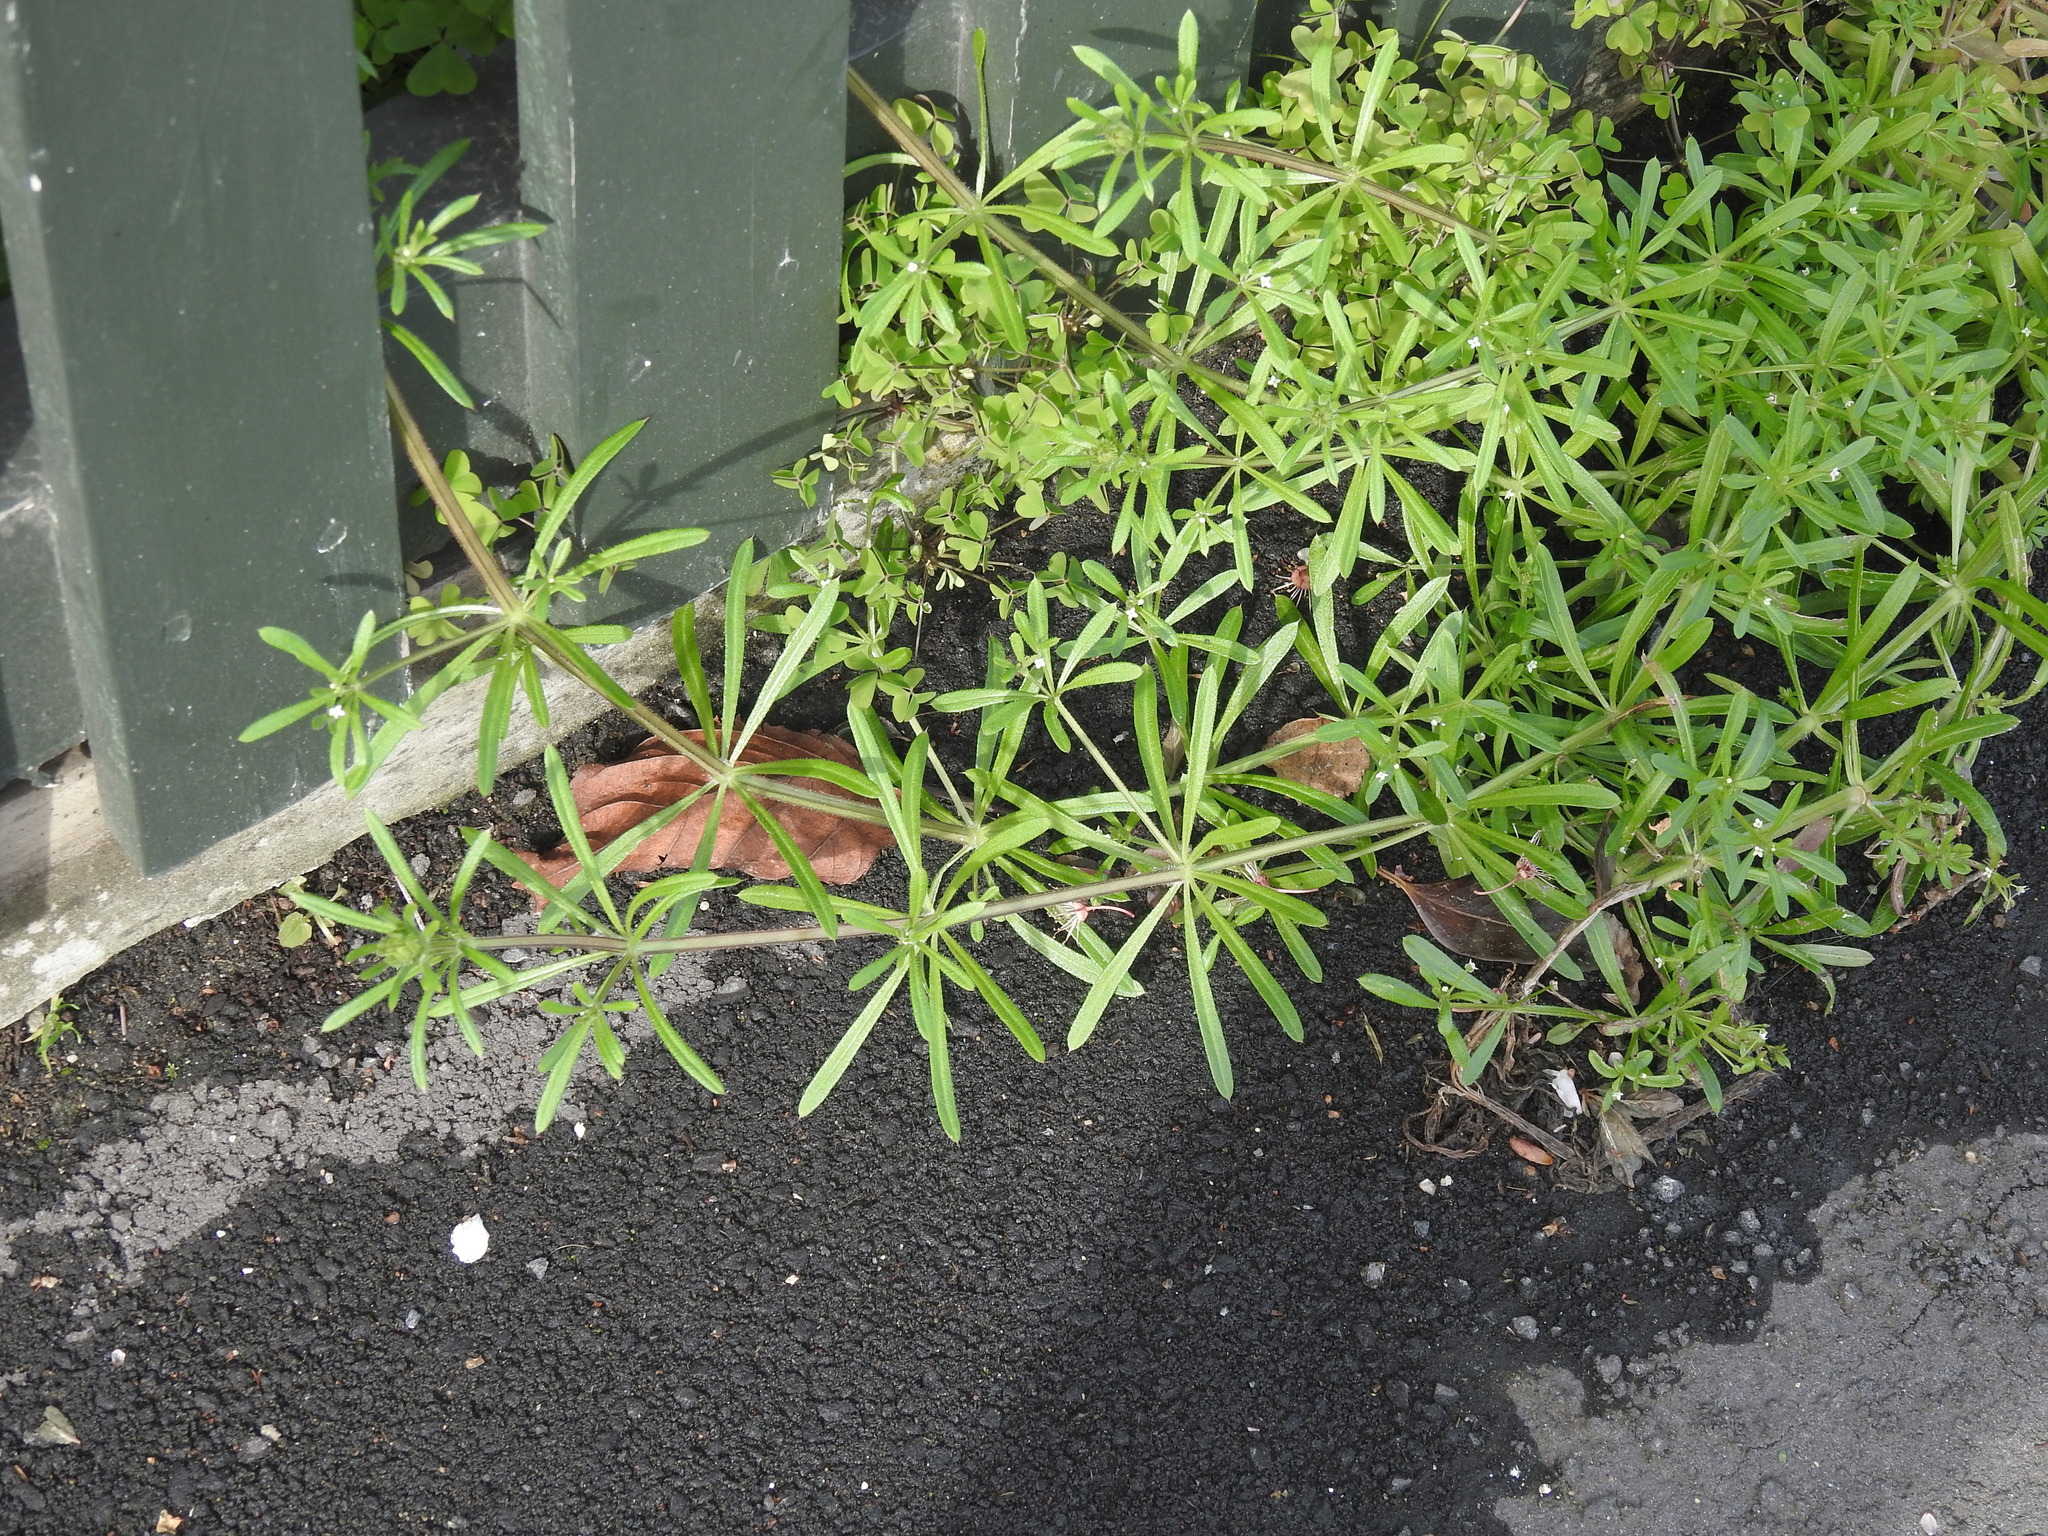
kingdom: Plantae
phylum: Tracheophyta
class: Magnoliopsida
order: Gentianales
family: Rubiaceae
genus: Galium
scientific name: Galium aparine
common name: Cleavers
